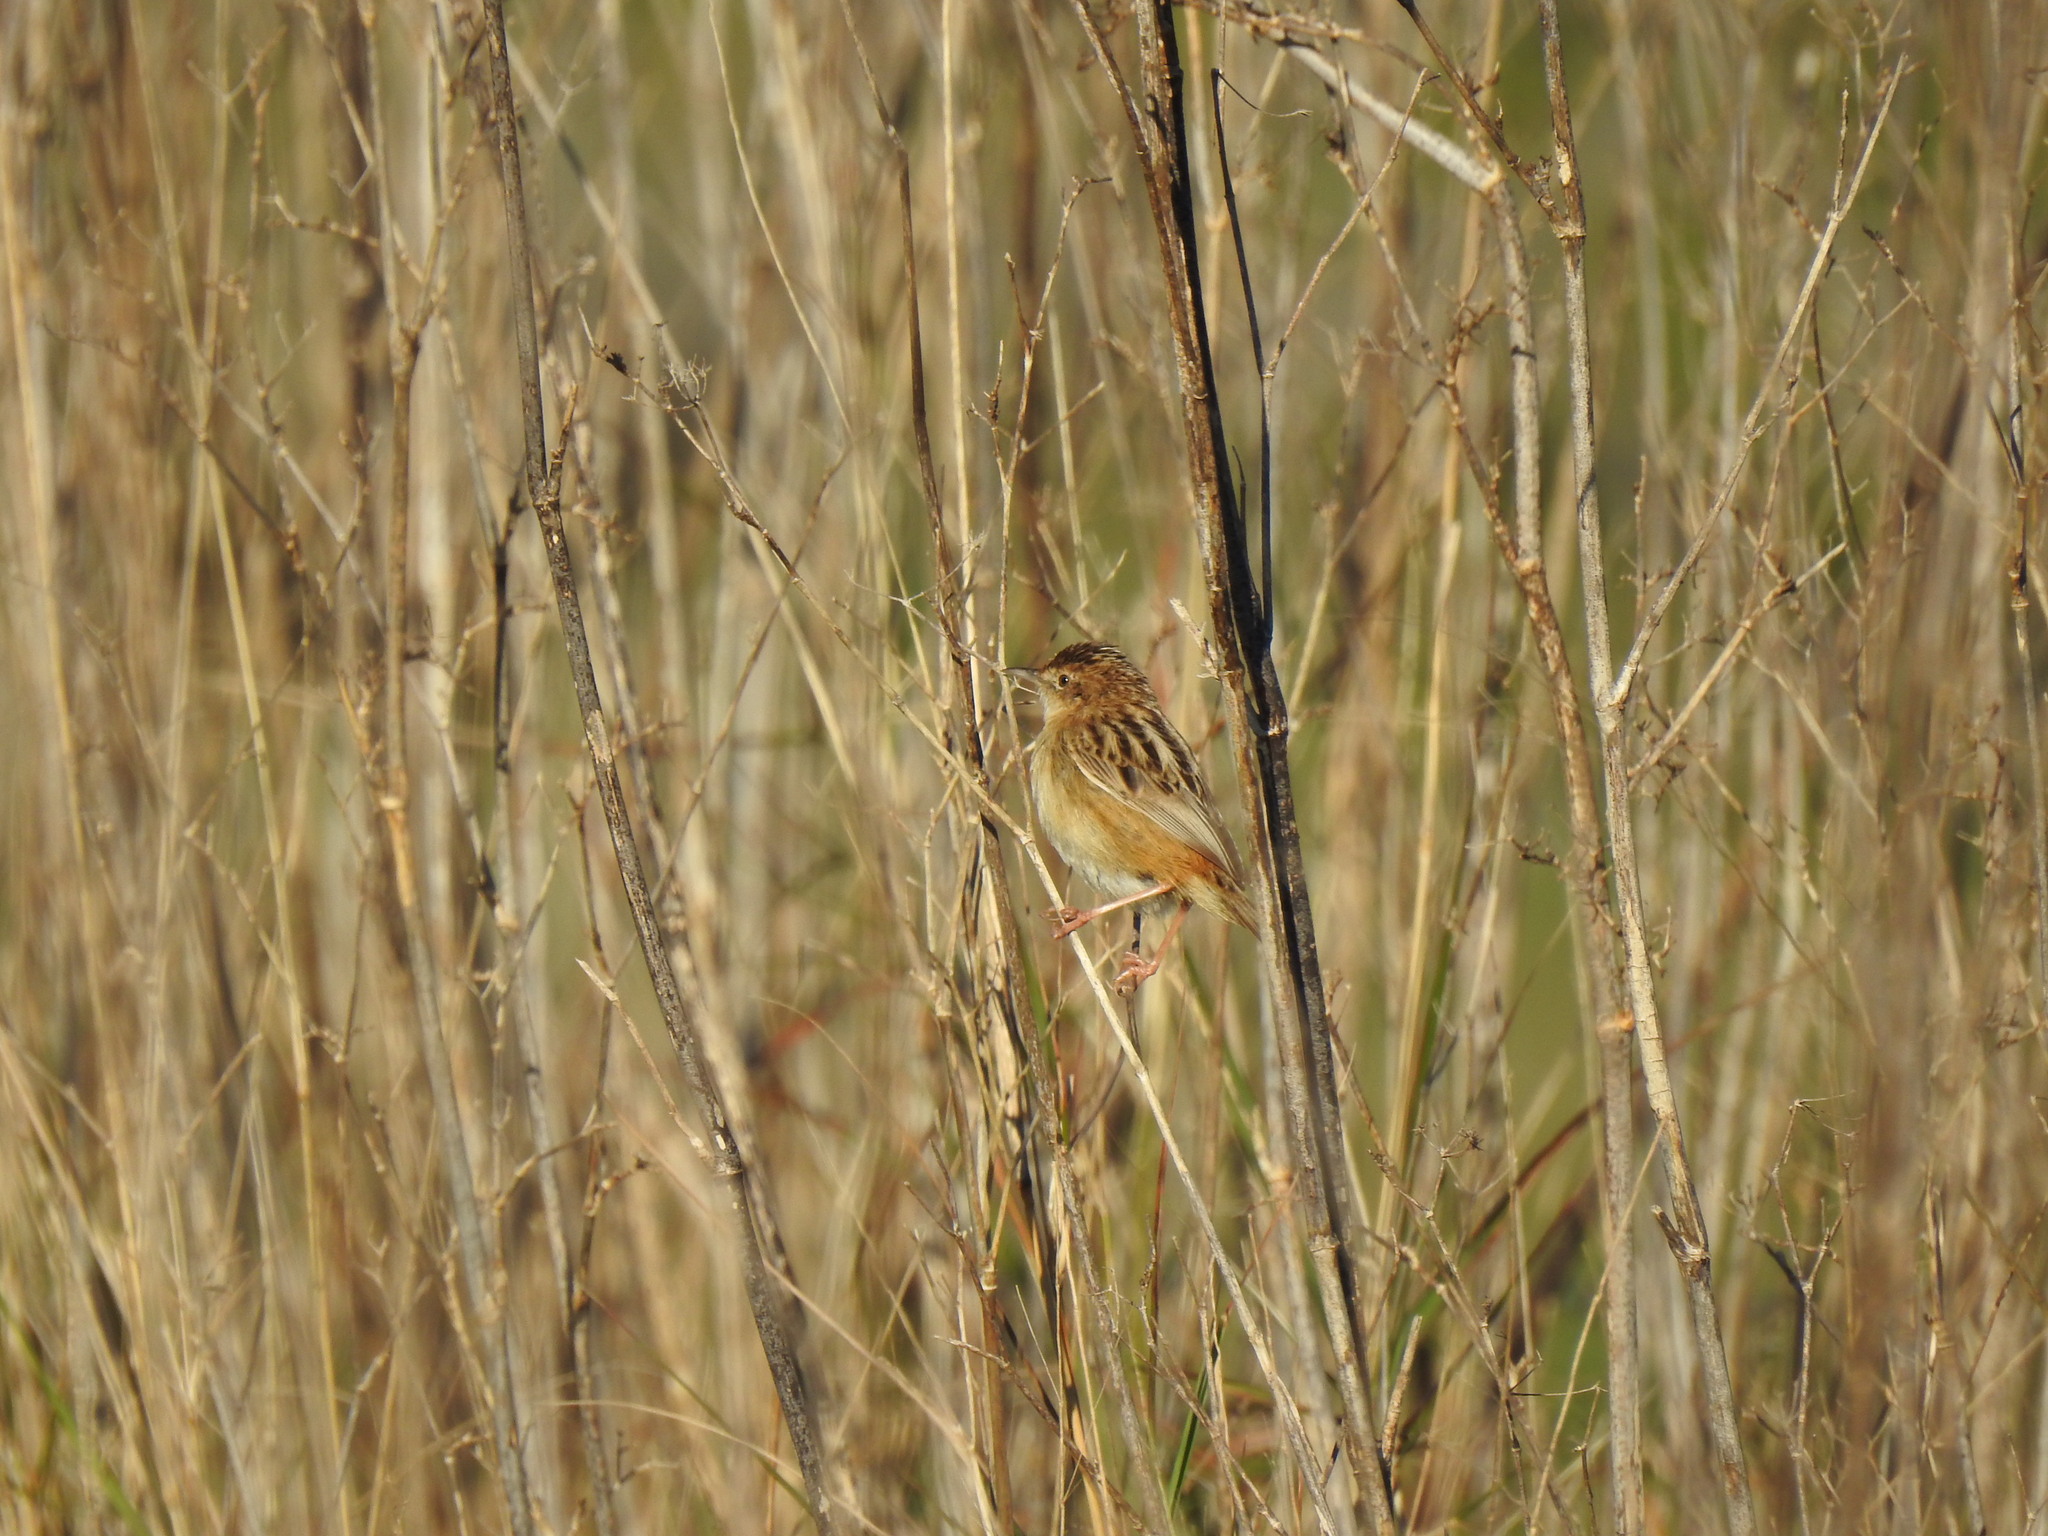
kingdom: Animalia
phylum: Chordata
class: Aves
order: Passeriformes
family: Cisticolidae
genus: Cisticola
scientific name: Cisticola juncidis
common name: Zitting cisticola
